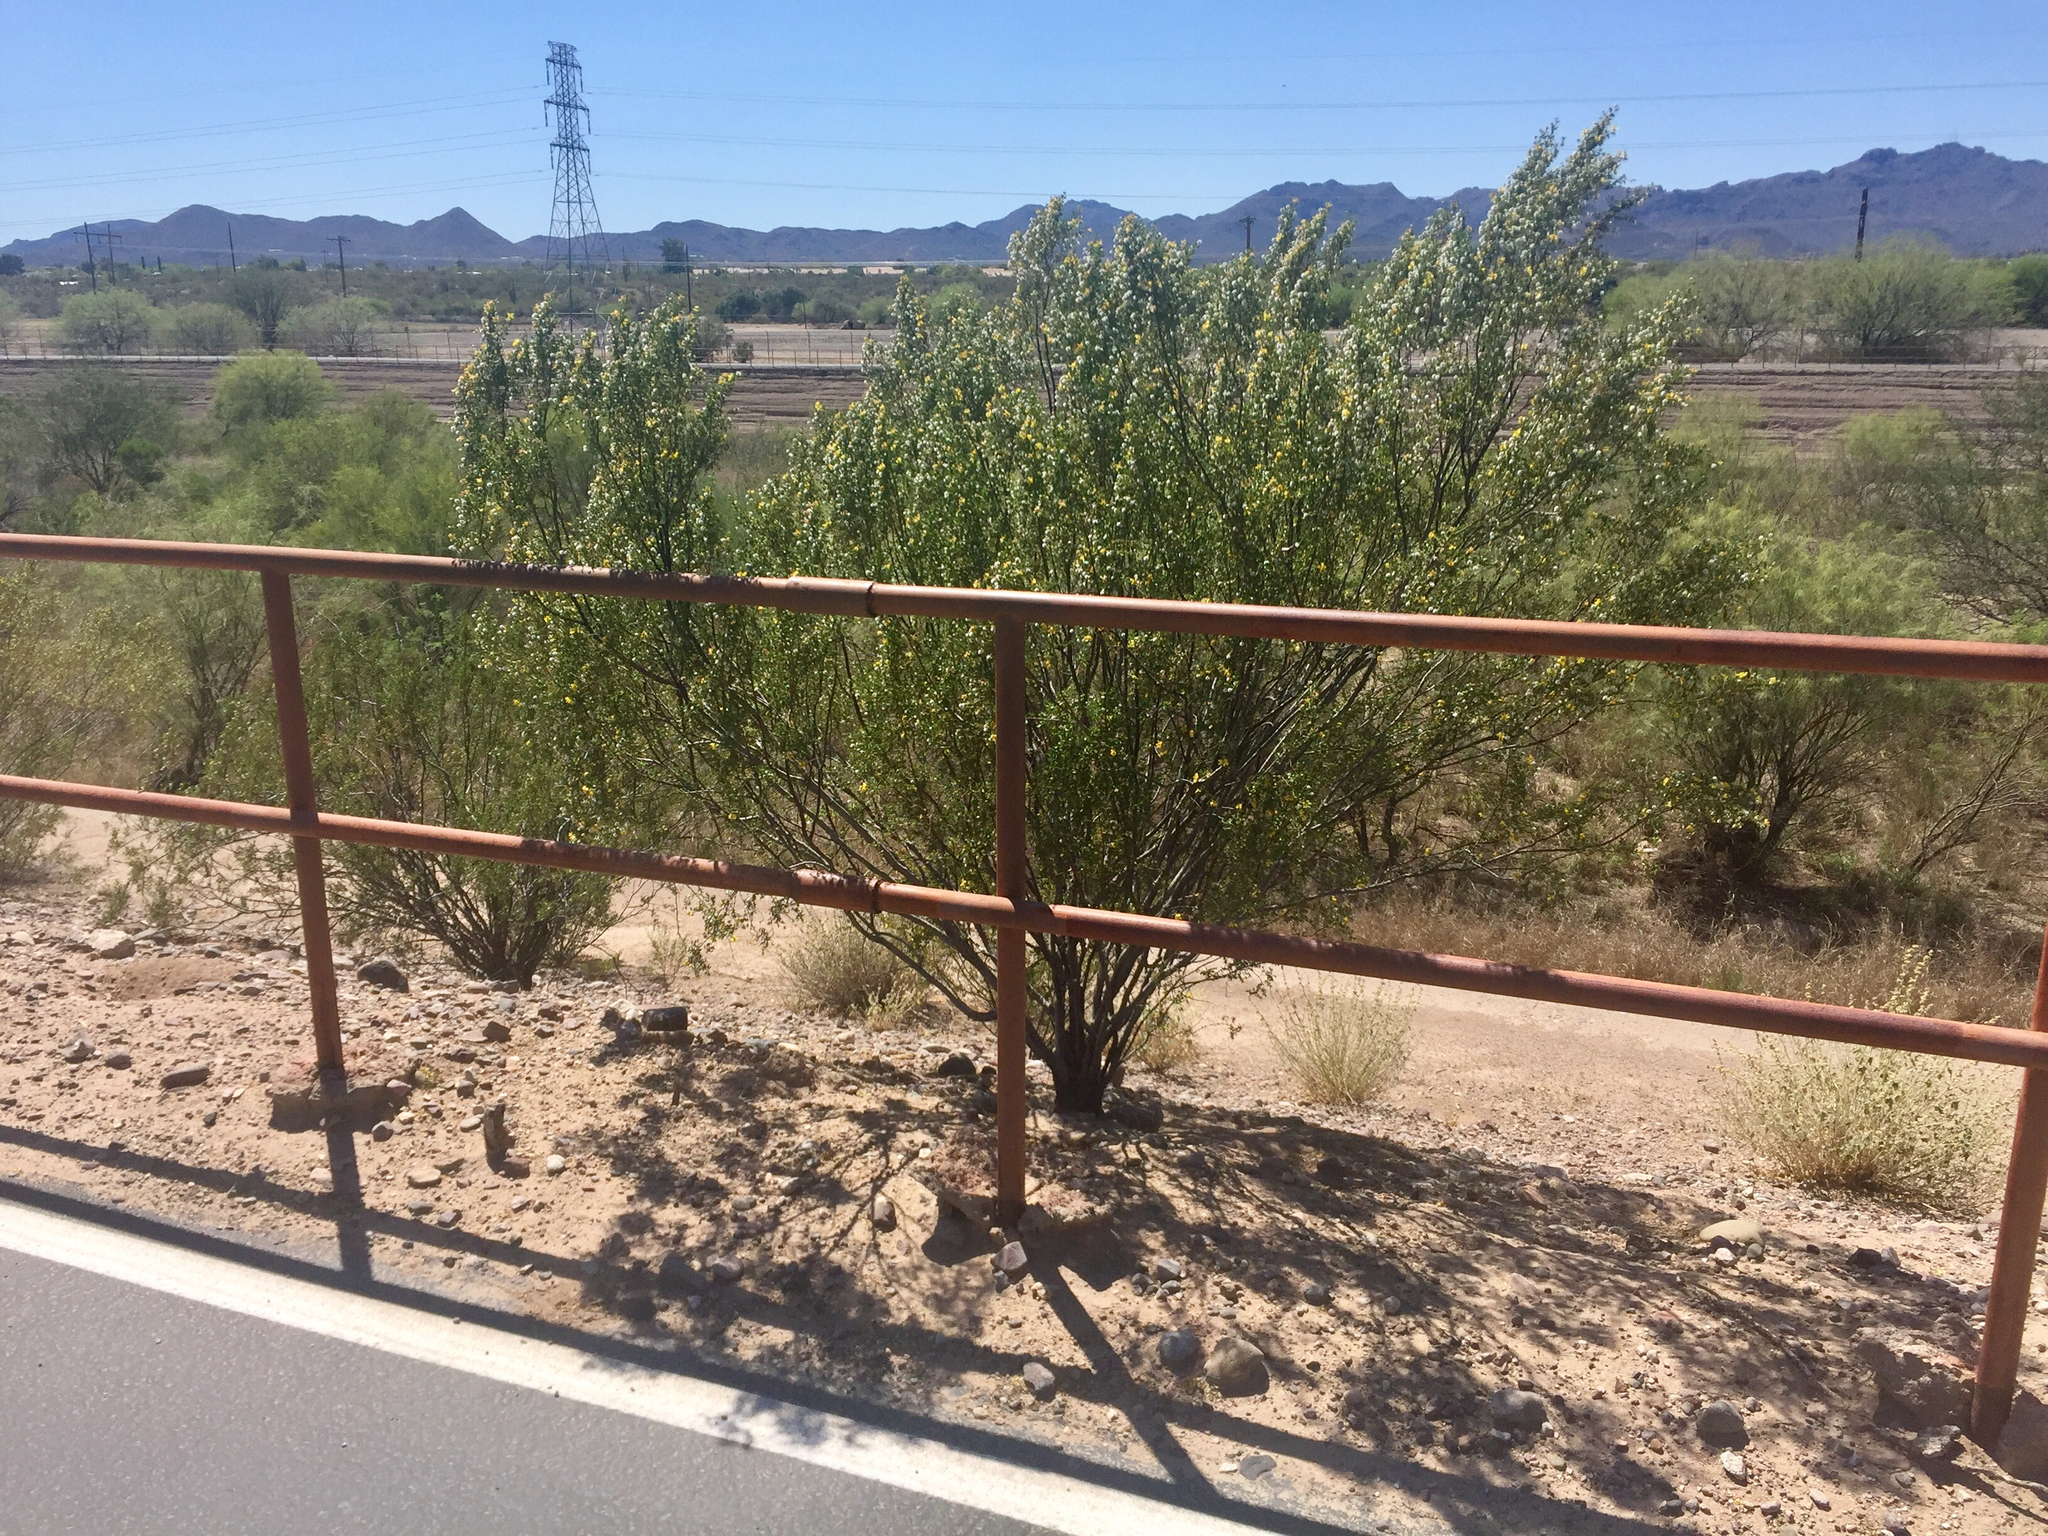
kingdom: Plantae
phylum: Tracheophyta
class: Magnoliopsida
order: Zygophyllales
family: Zygophyllaceae
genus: Larrea
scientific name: Larrea tridentata
